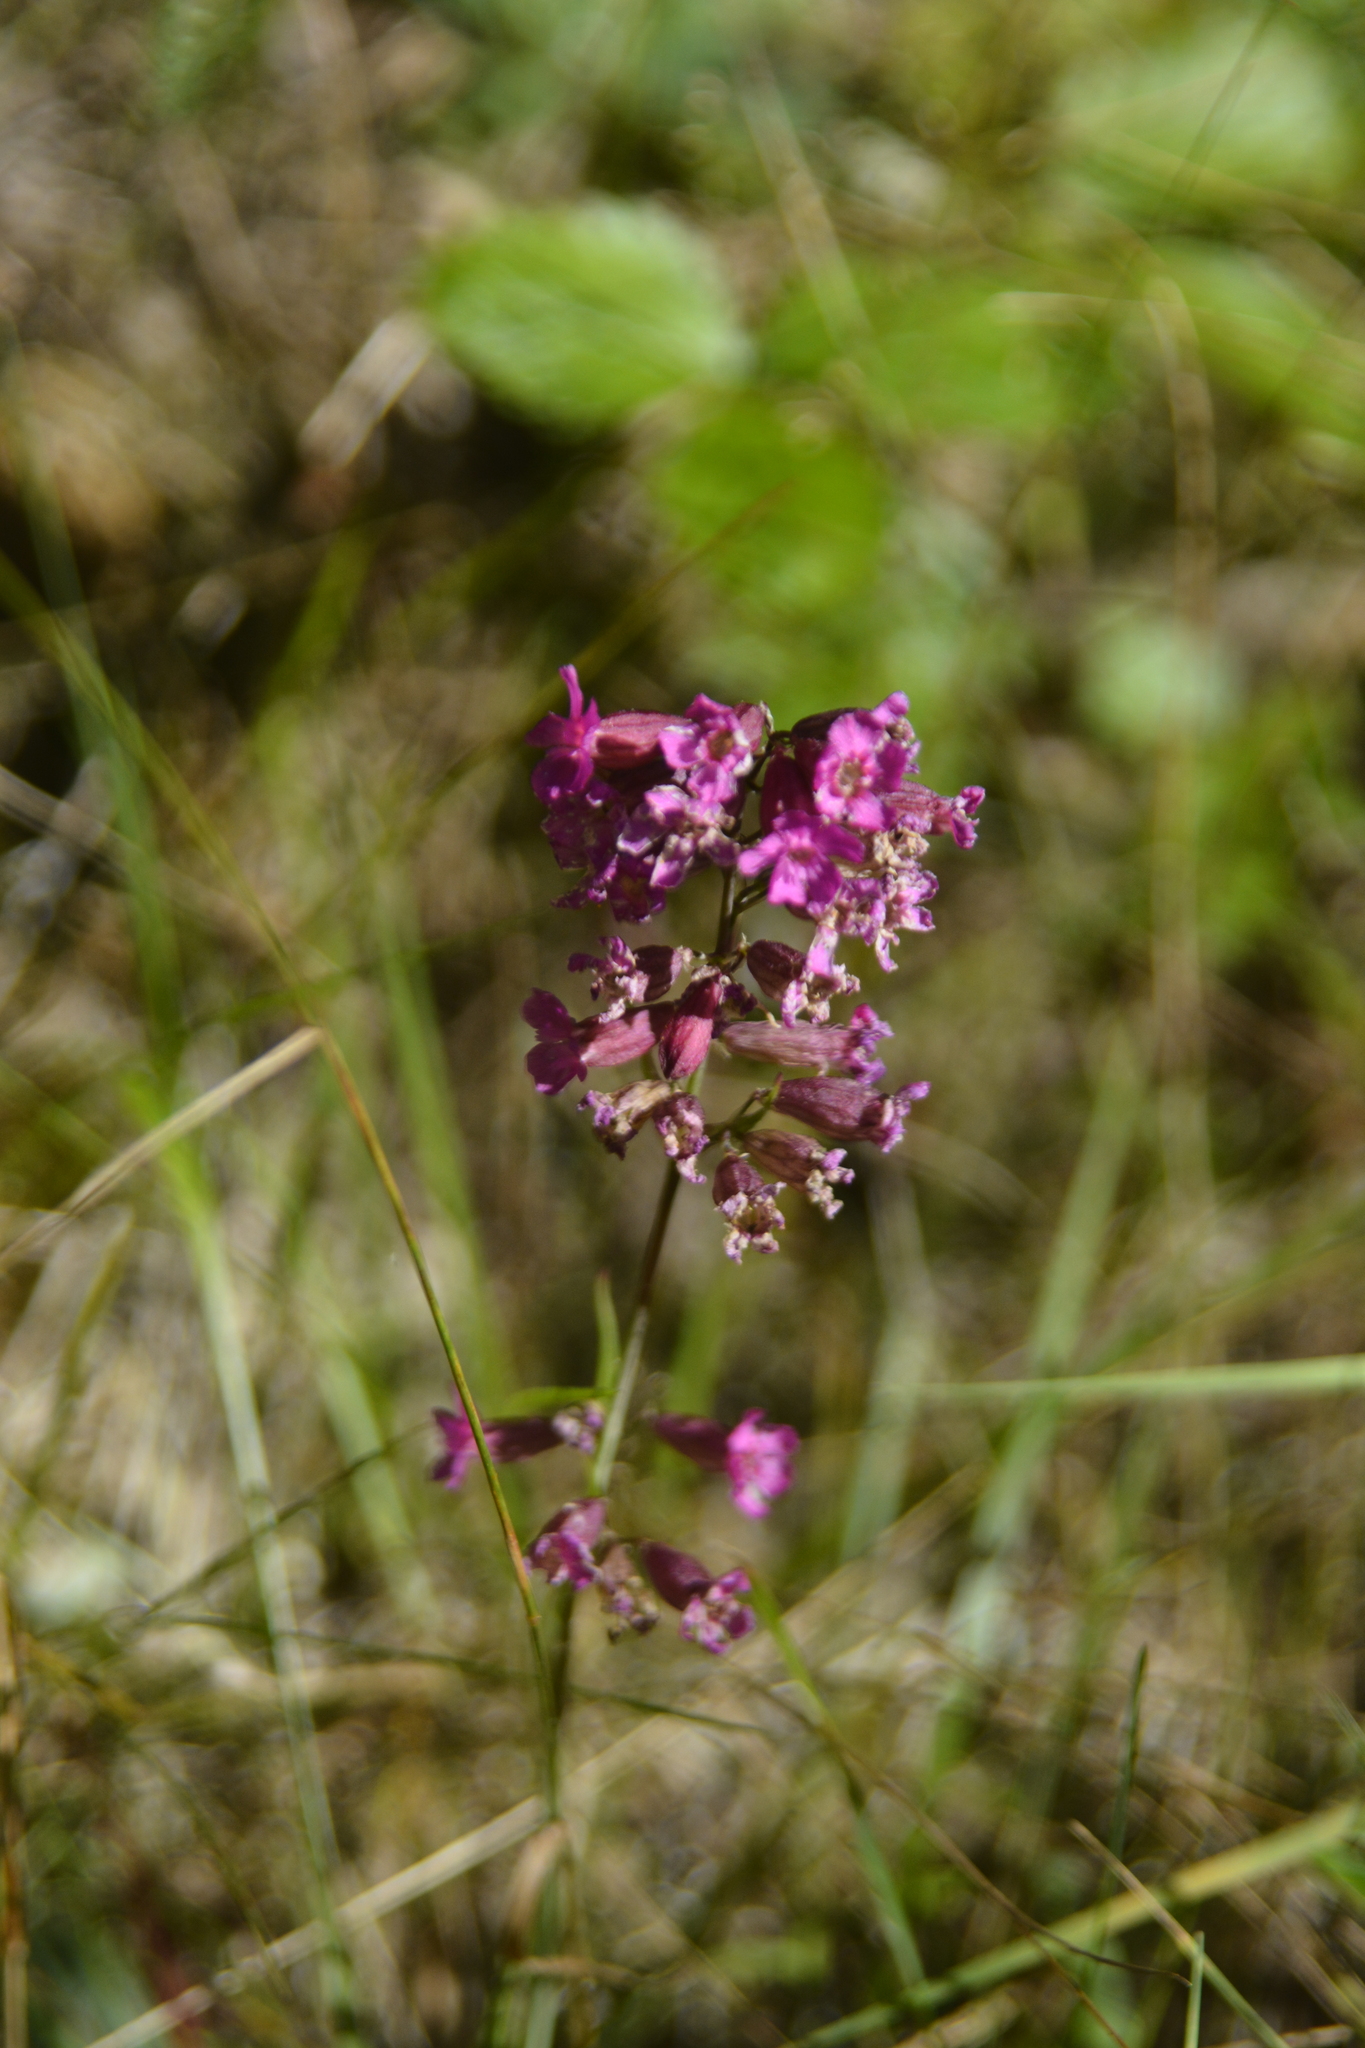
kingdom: Plantae
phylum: Tracheophyta
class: Magnoliopsida
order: Caryophyllales
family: Caryophyllaceae
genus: Viscaria
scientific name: Viscaria vulgaris
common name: Clammy campion
